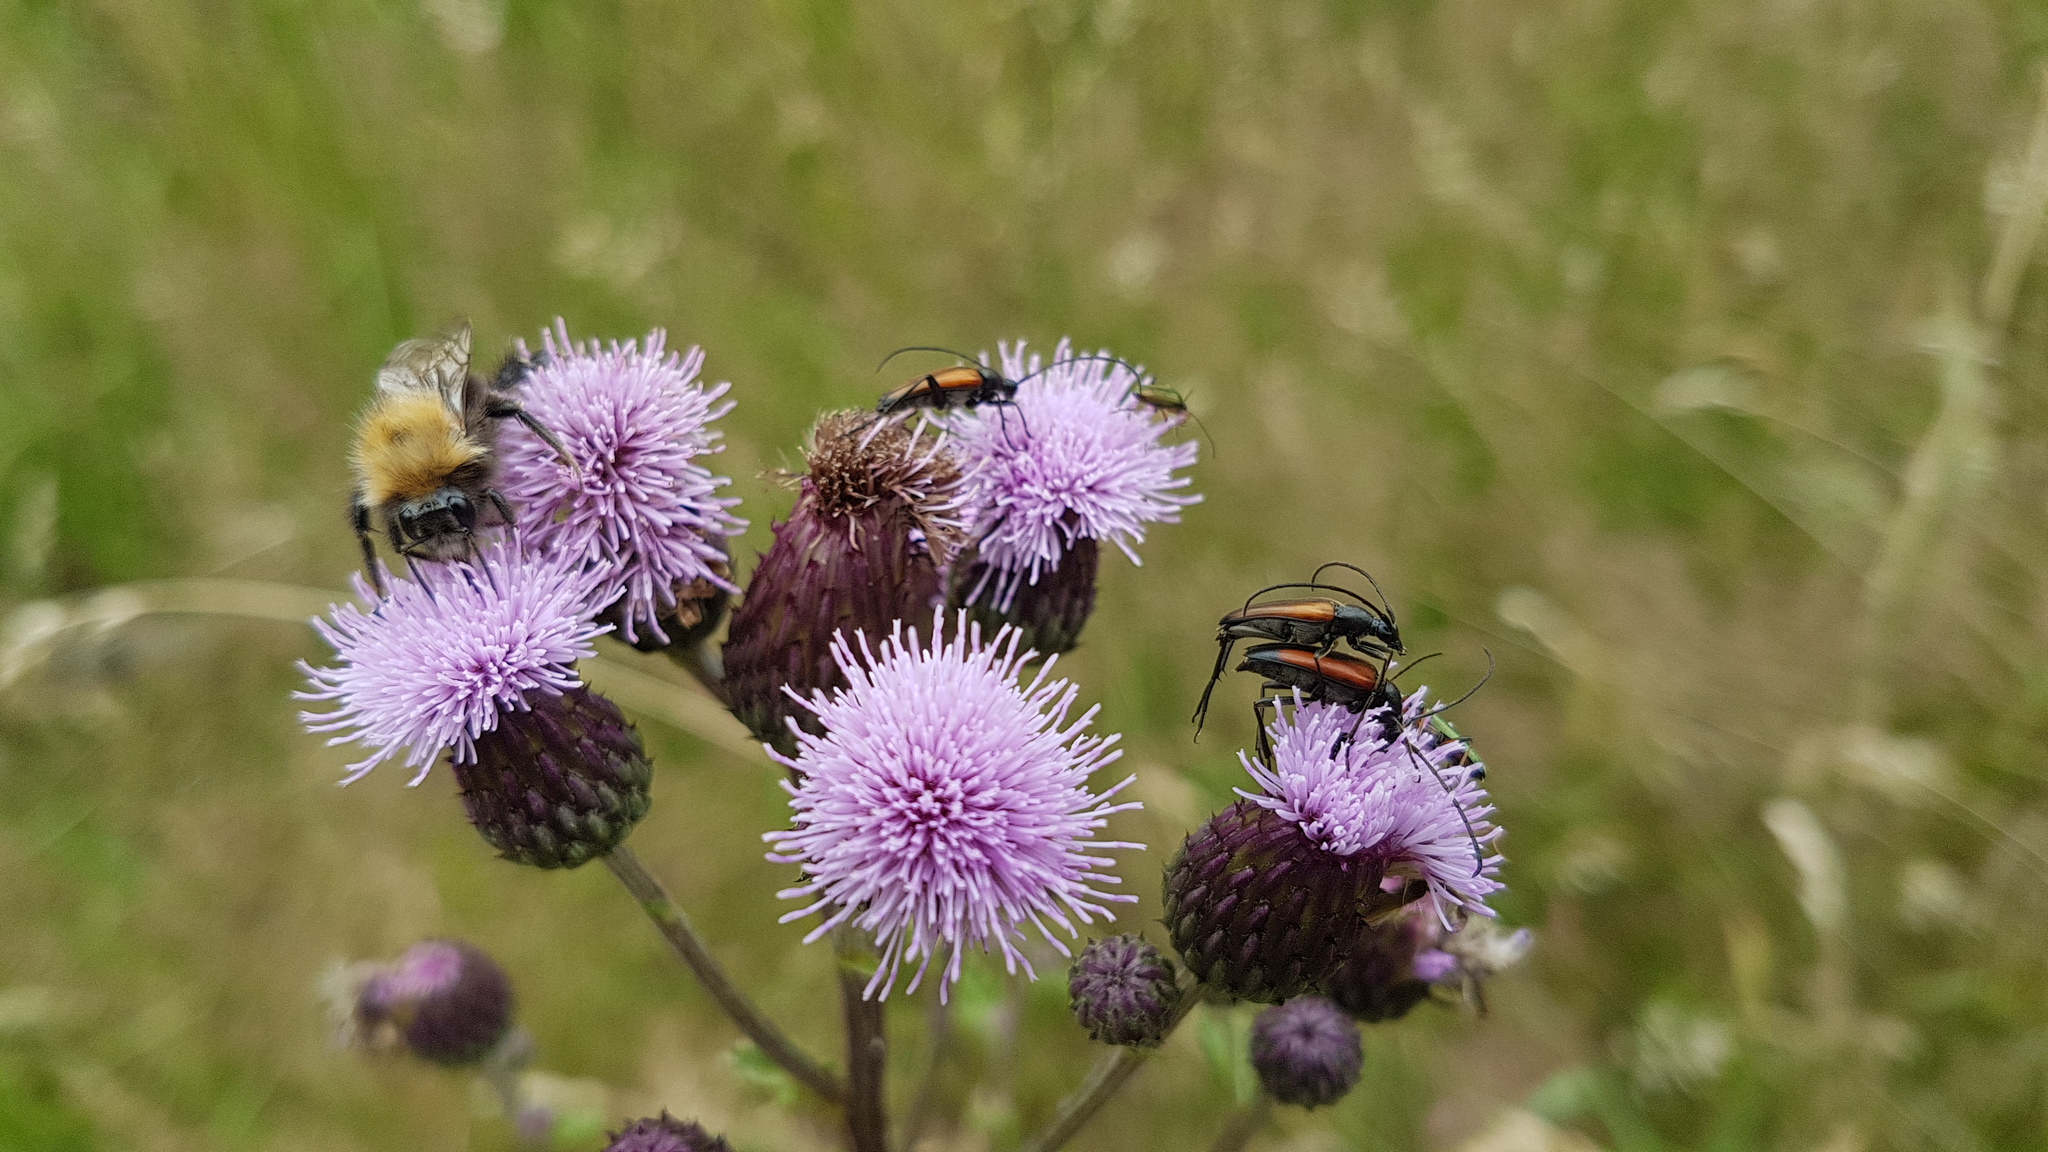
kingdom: Animalia
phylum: Arthropoda
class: Insecta
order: Coleoptera
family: Cerambycidae
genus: Stenurella
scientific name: Stenurella melanura
